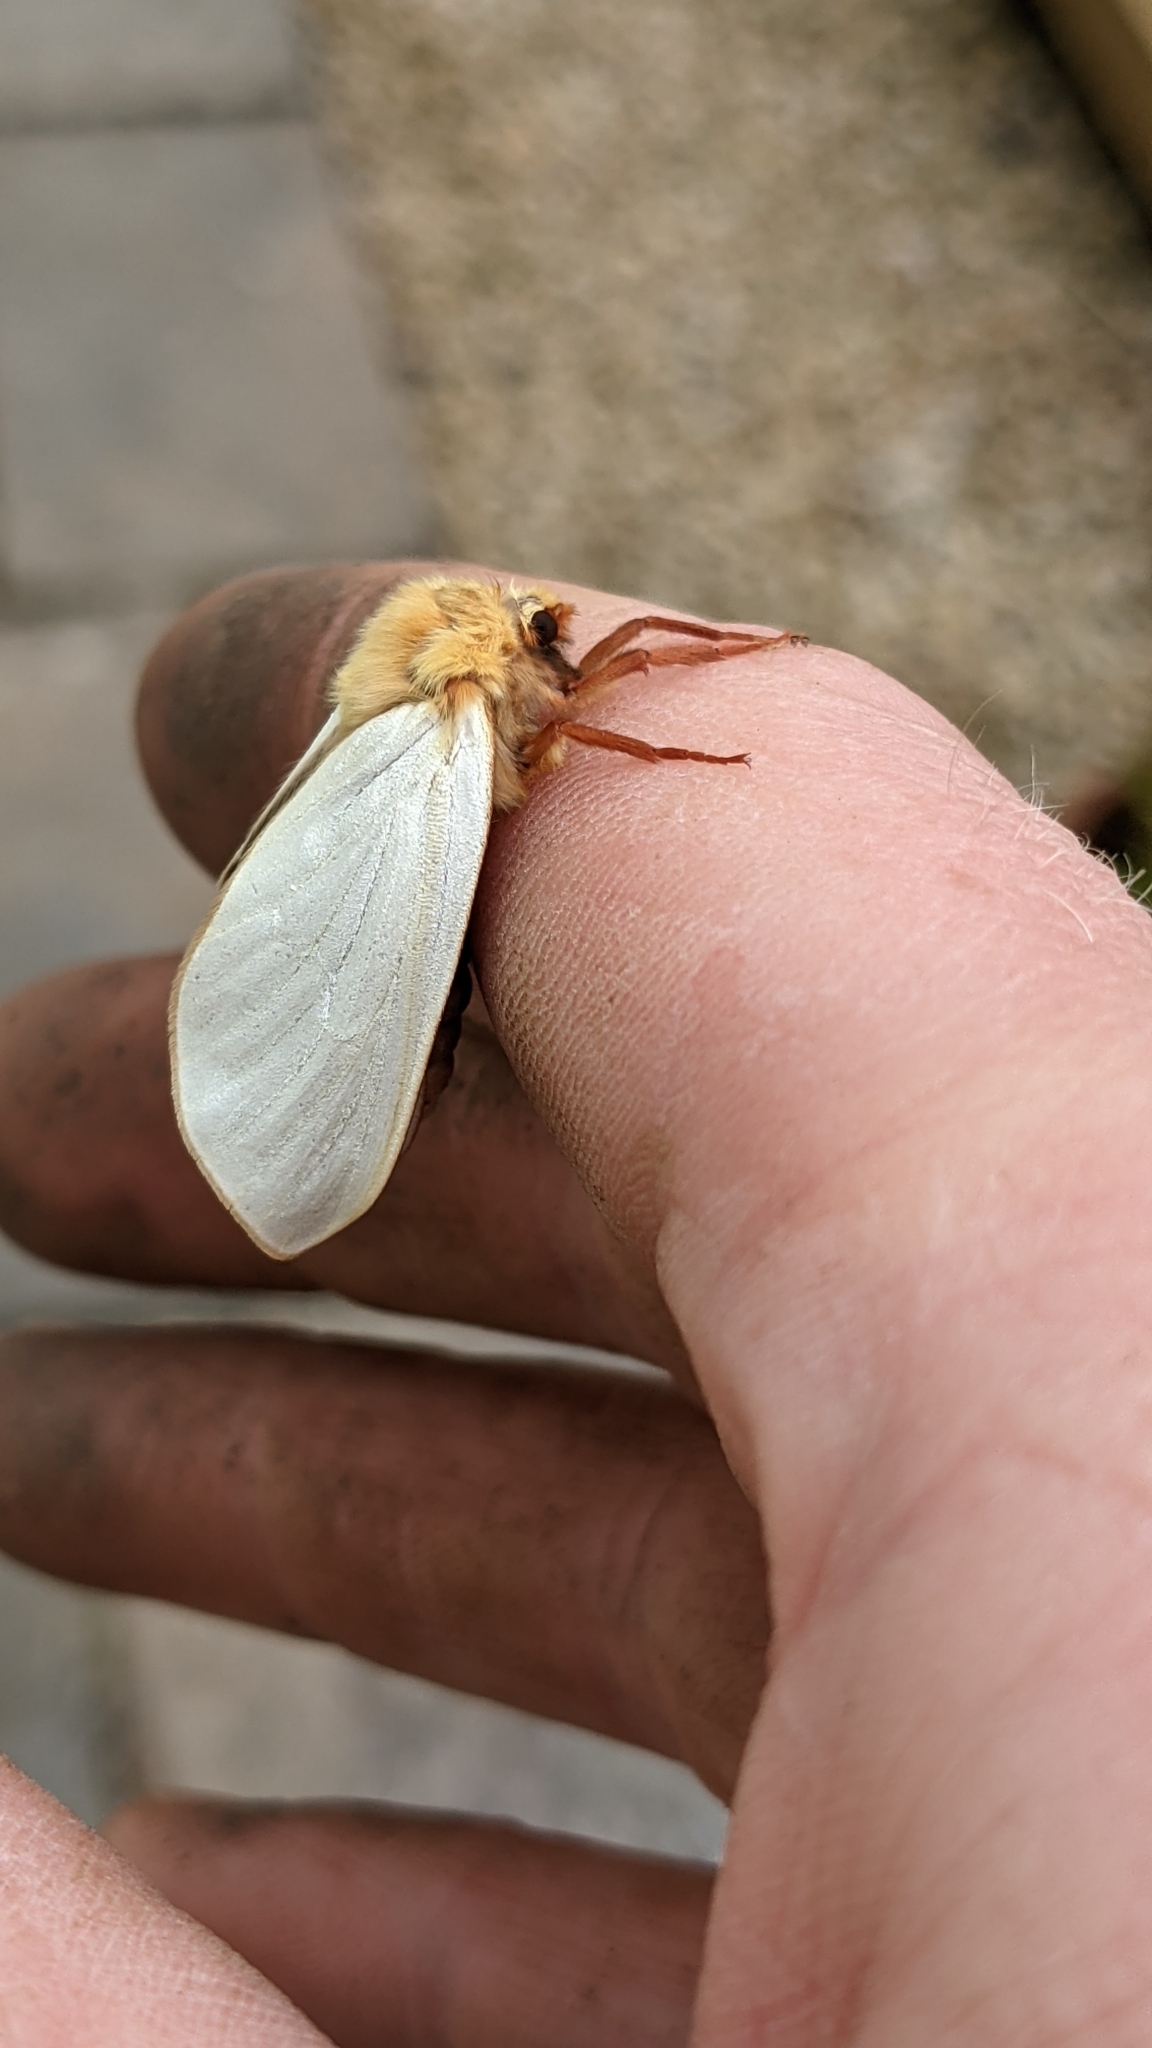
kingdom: Animalia
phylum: Arthropoda
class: Insecta
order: Lepidoptera
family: Hepialidae
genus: Hepialus
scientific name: Hepialus humuli
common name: Ghost moth
